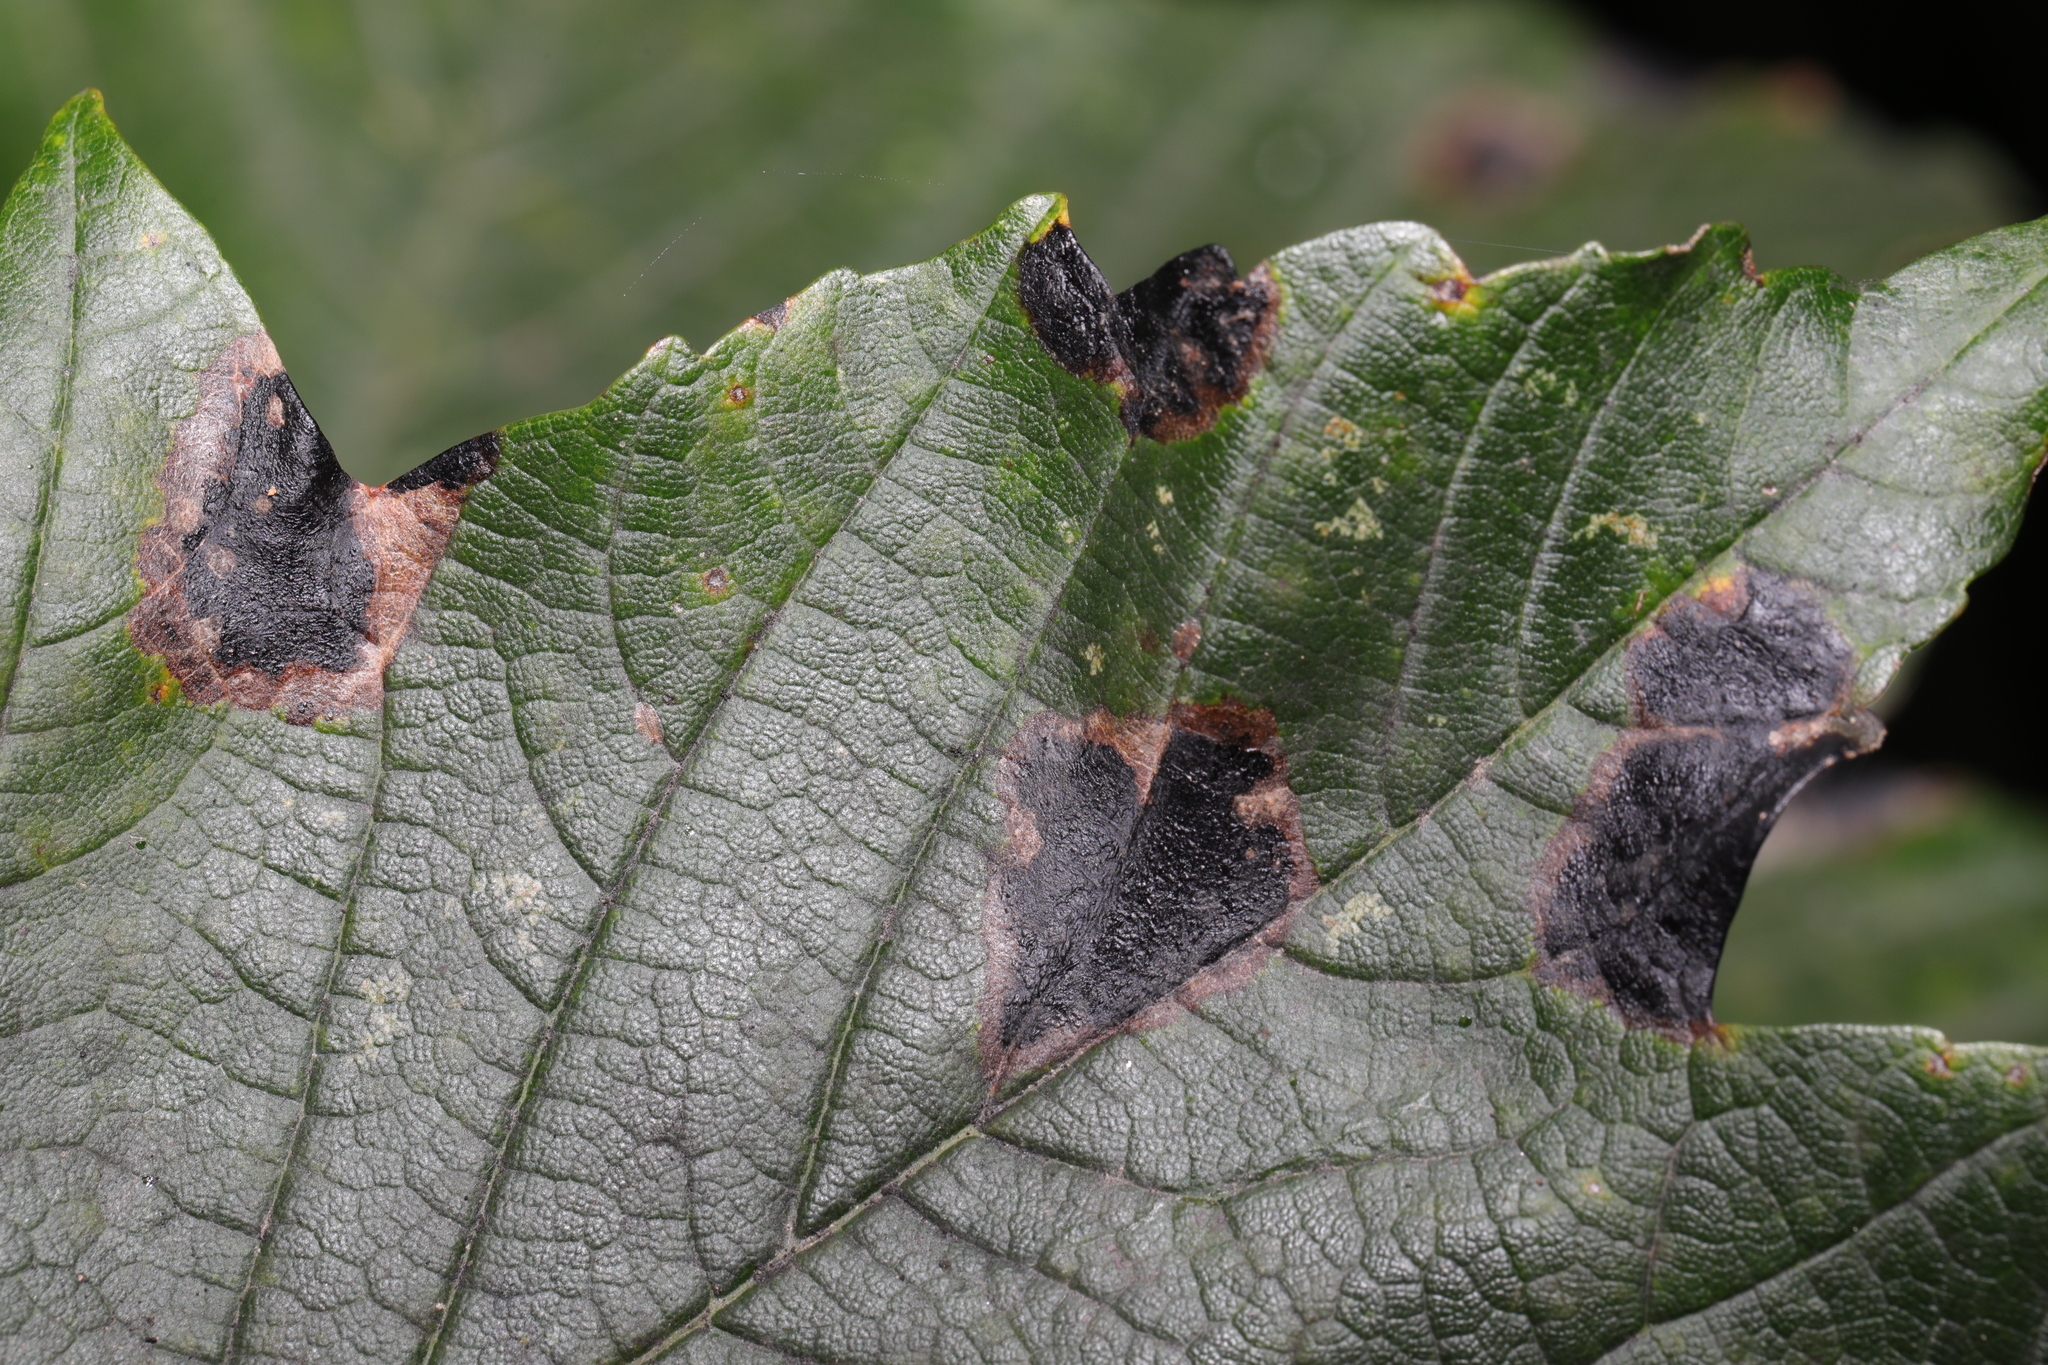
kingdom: Fungi
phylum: Ascomycota
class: Leotiomycetes
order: Rhytismatales
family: Rhytismataceae
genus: Rhytisma
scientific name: Rhytisma acerinum
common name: European tar spot
